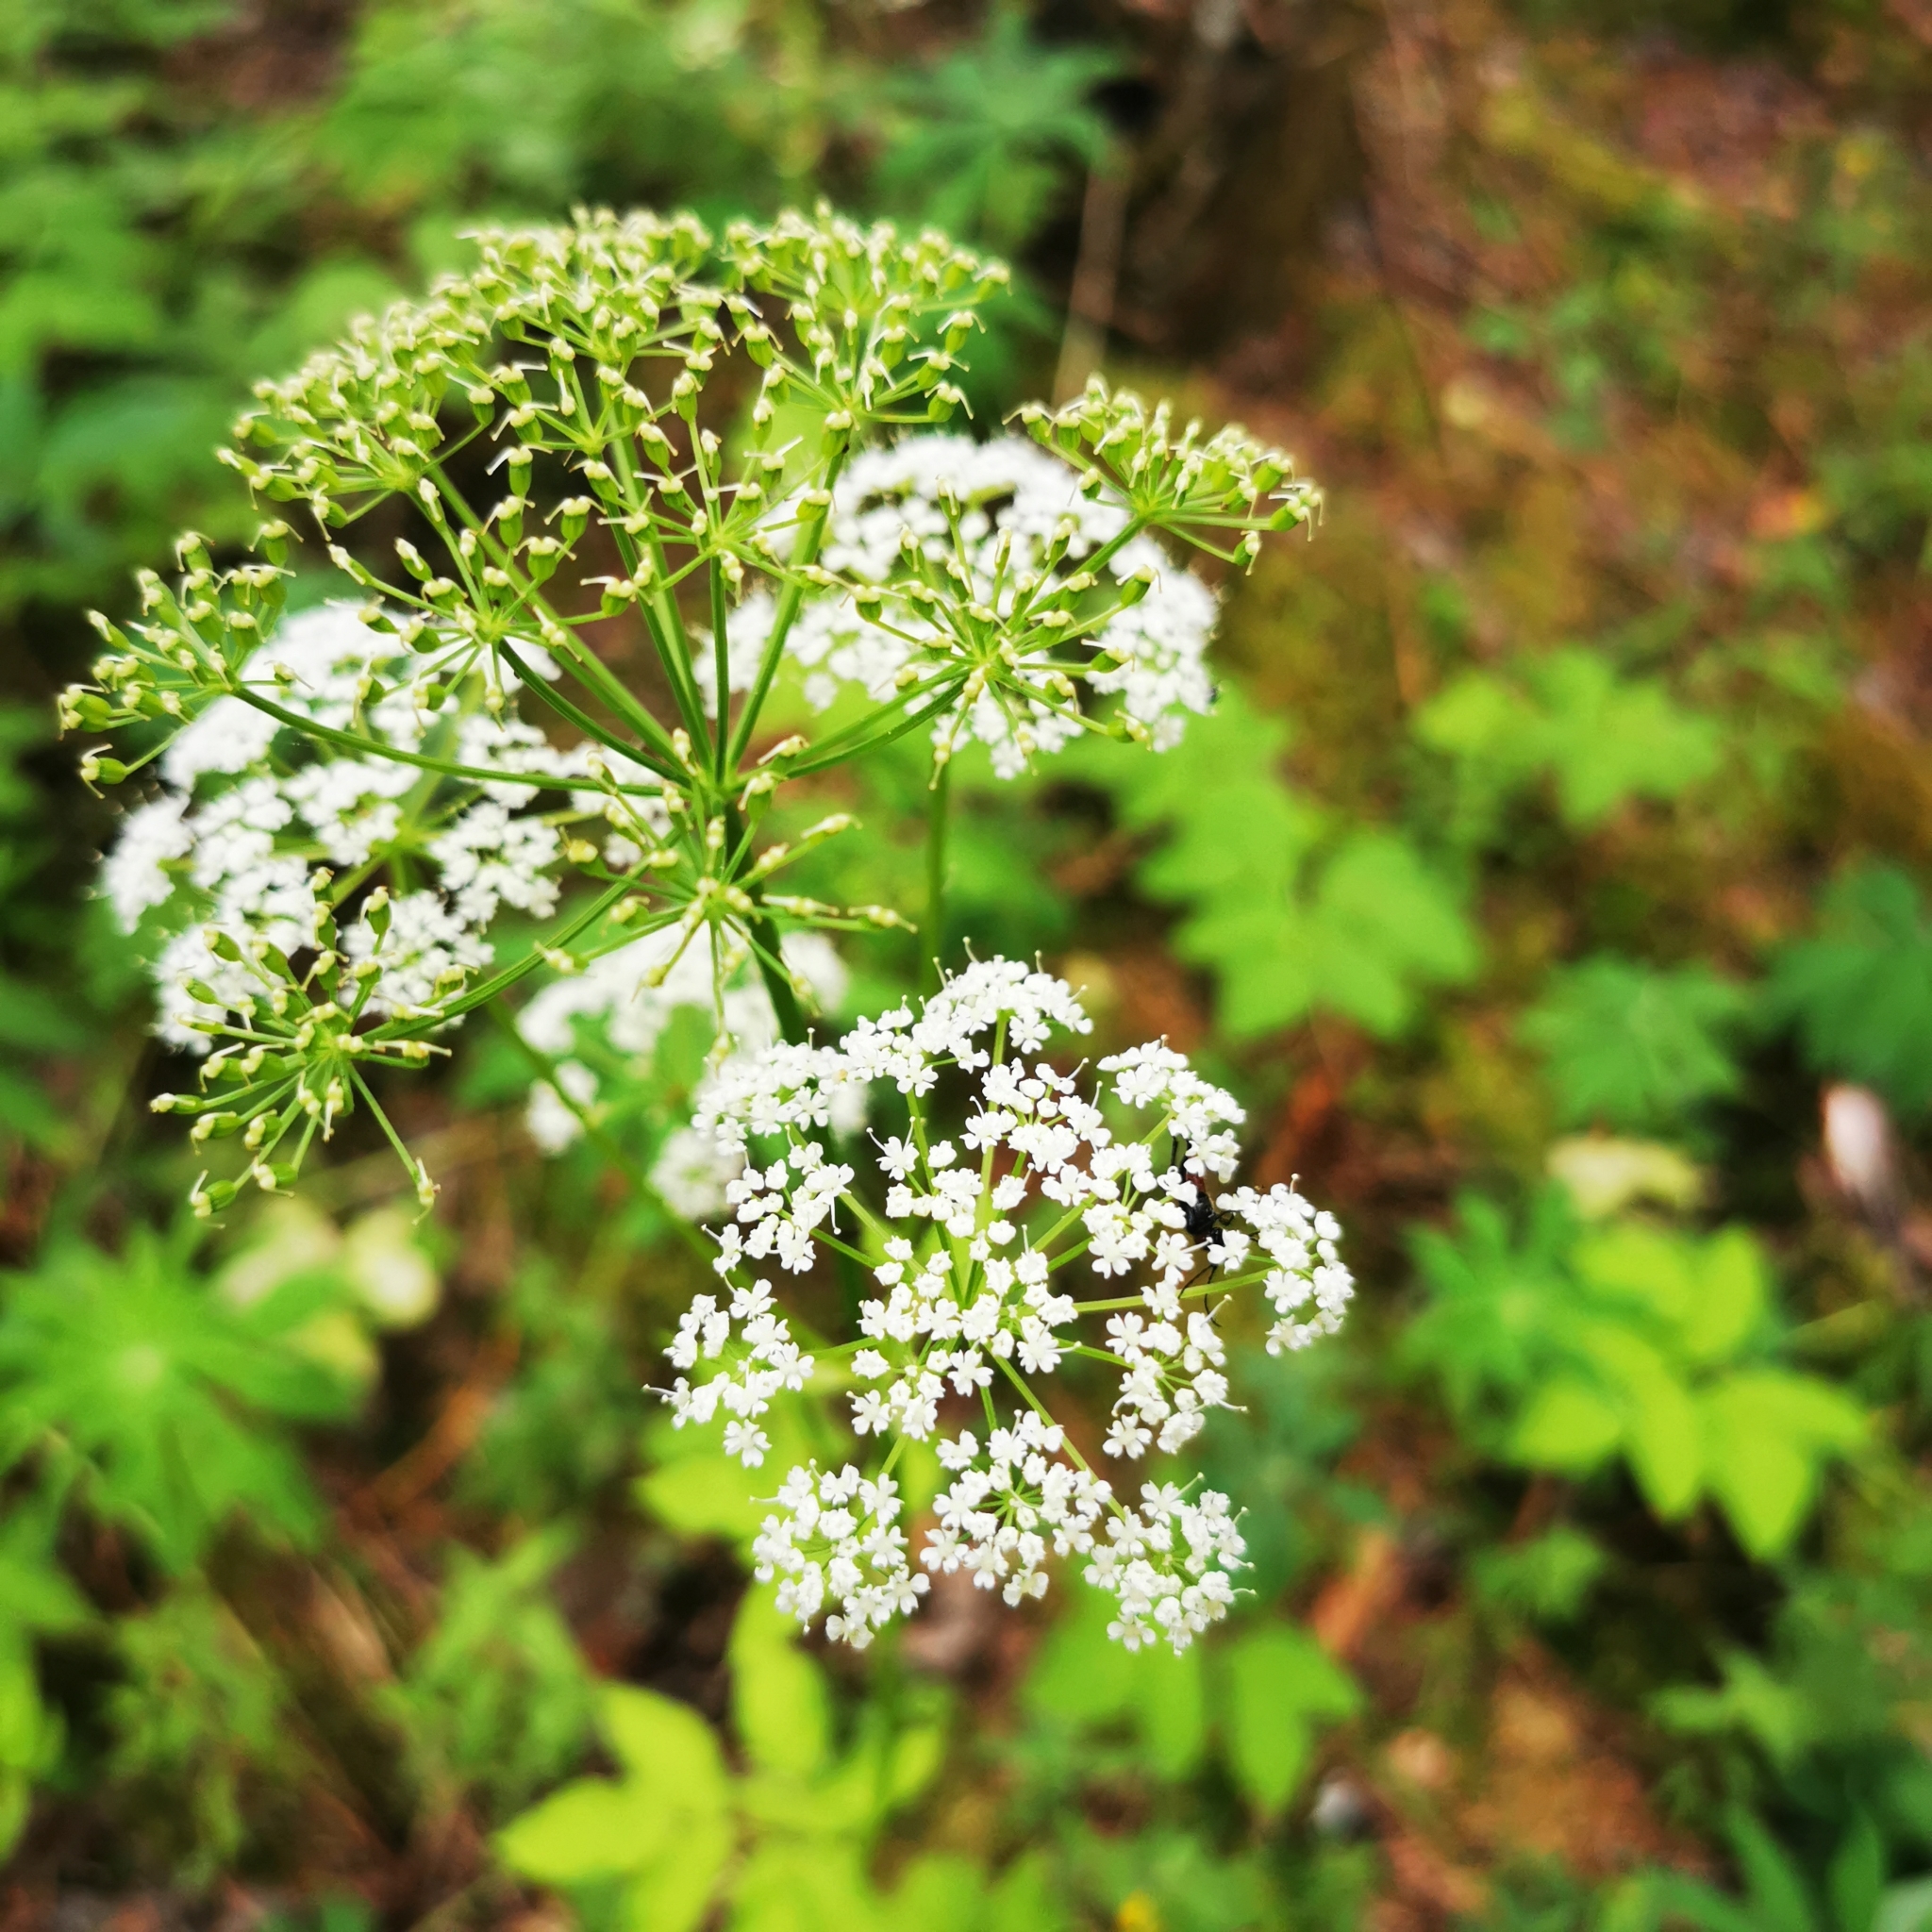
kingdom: Plantae
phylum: Tracheophyta
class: Magnoliopsida
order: Apiales
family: Apiaceae
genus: Aegopodium
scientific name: Aegopodium podagraria
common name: Ground-elder
